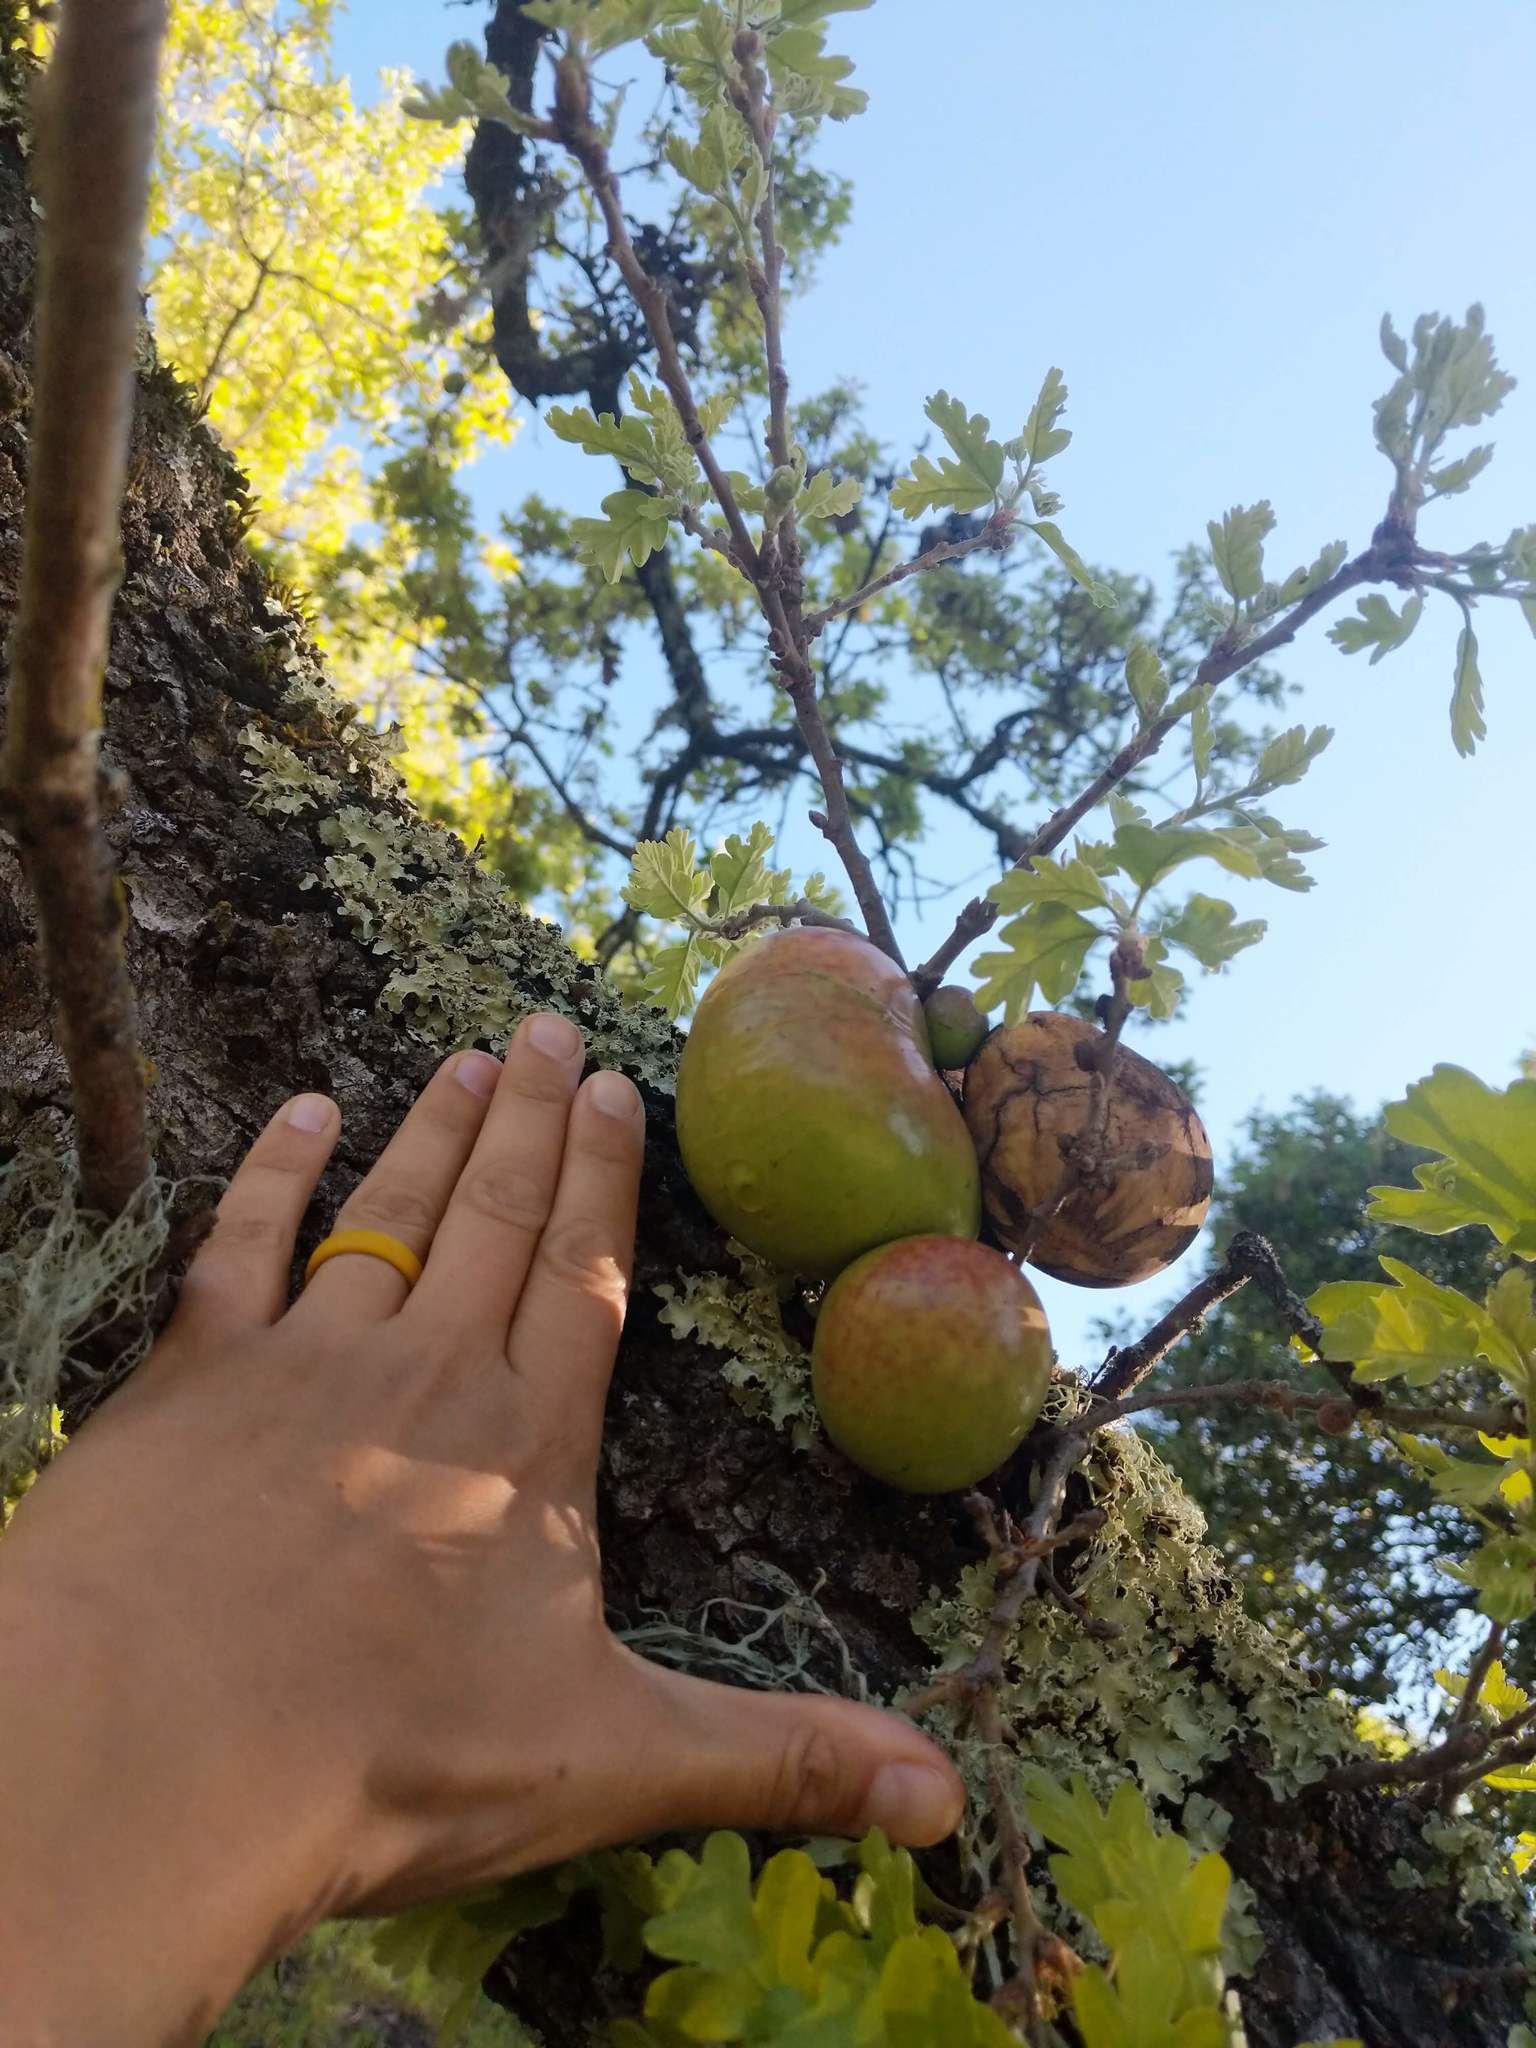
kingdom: Animalia
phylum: Arthropoda
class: Insecta
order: Hymenoptera
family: Cynipidae
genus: Andricus
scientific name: Andricus quercuscalifornicus
